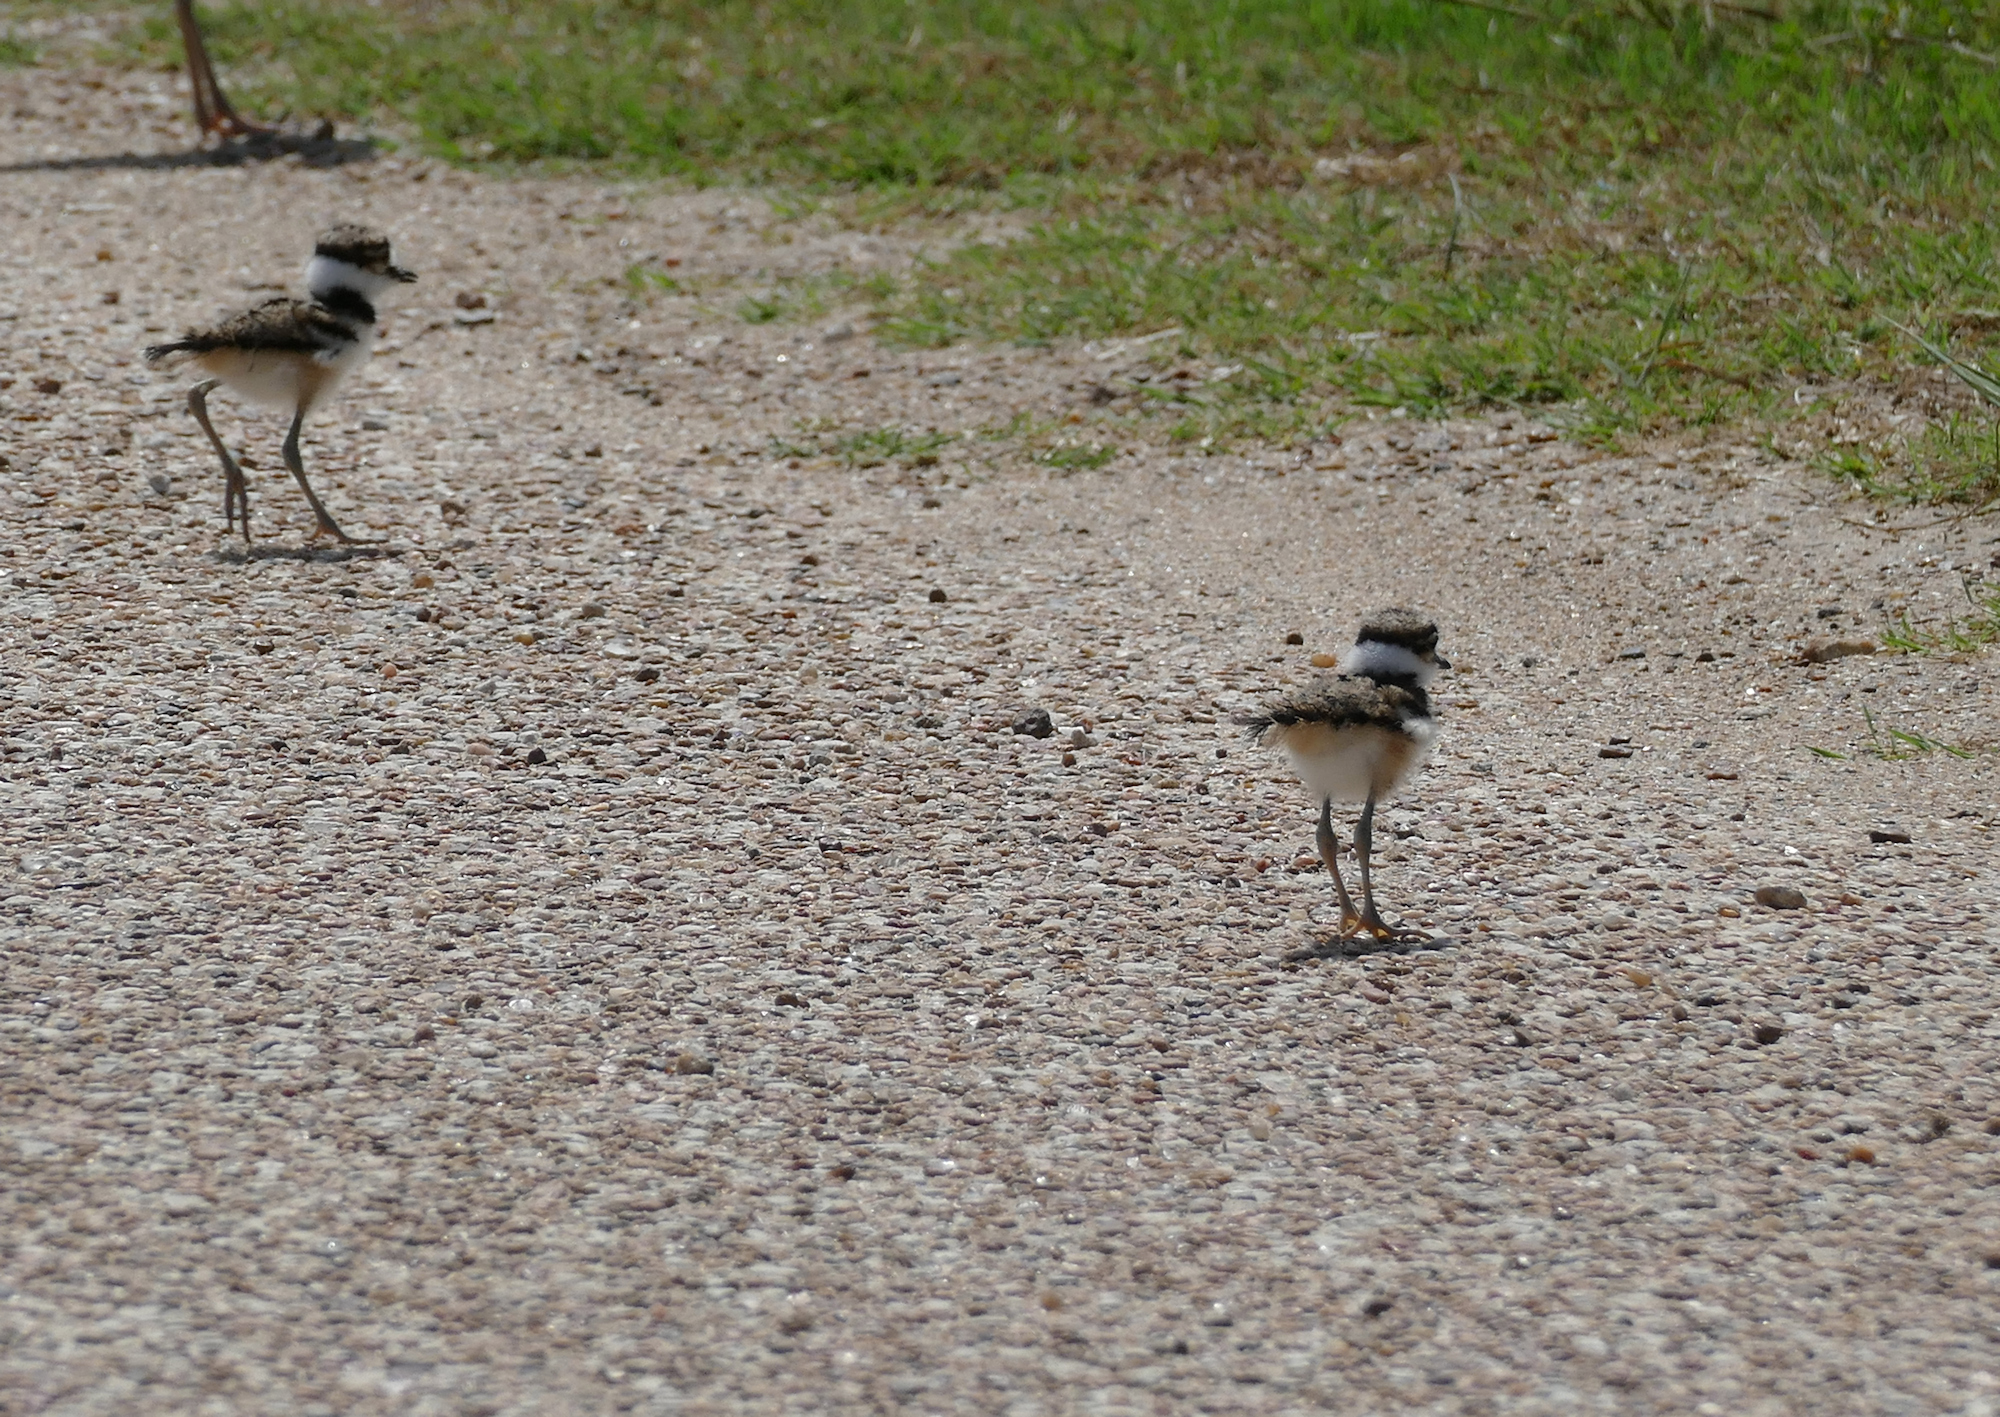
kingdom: Animalia
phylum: Chordata
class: Aves
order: Charadriiformes
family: Charadriidae
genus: Charadrius
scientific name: Charadrius vociferus
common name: Killdeer
